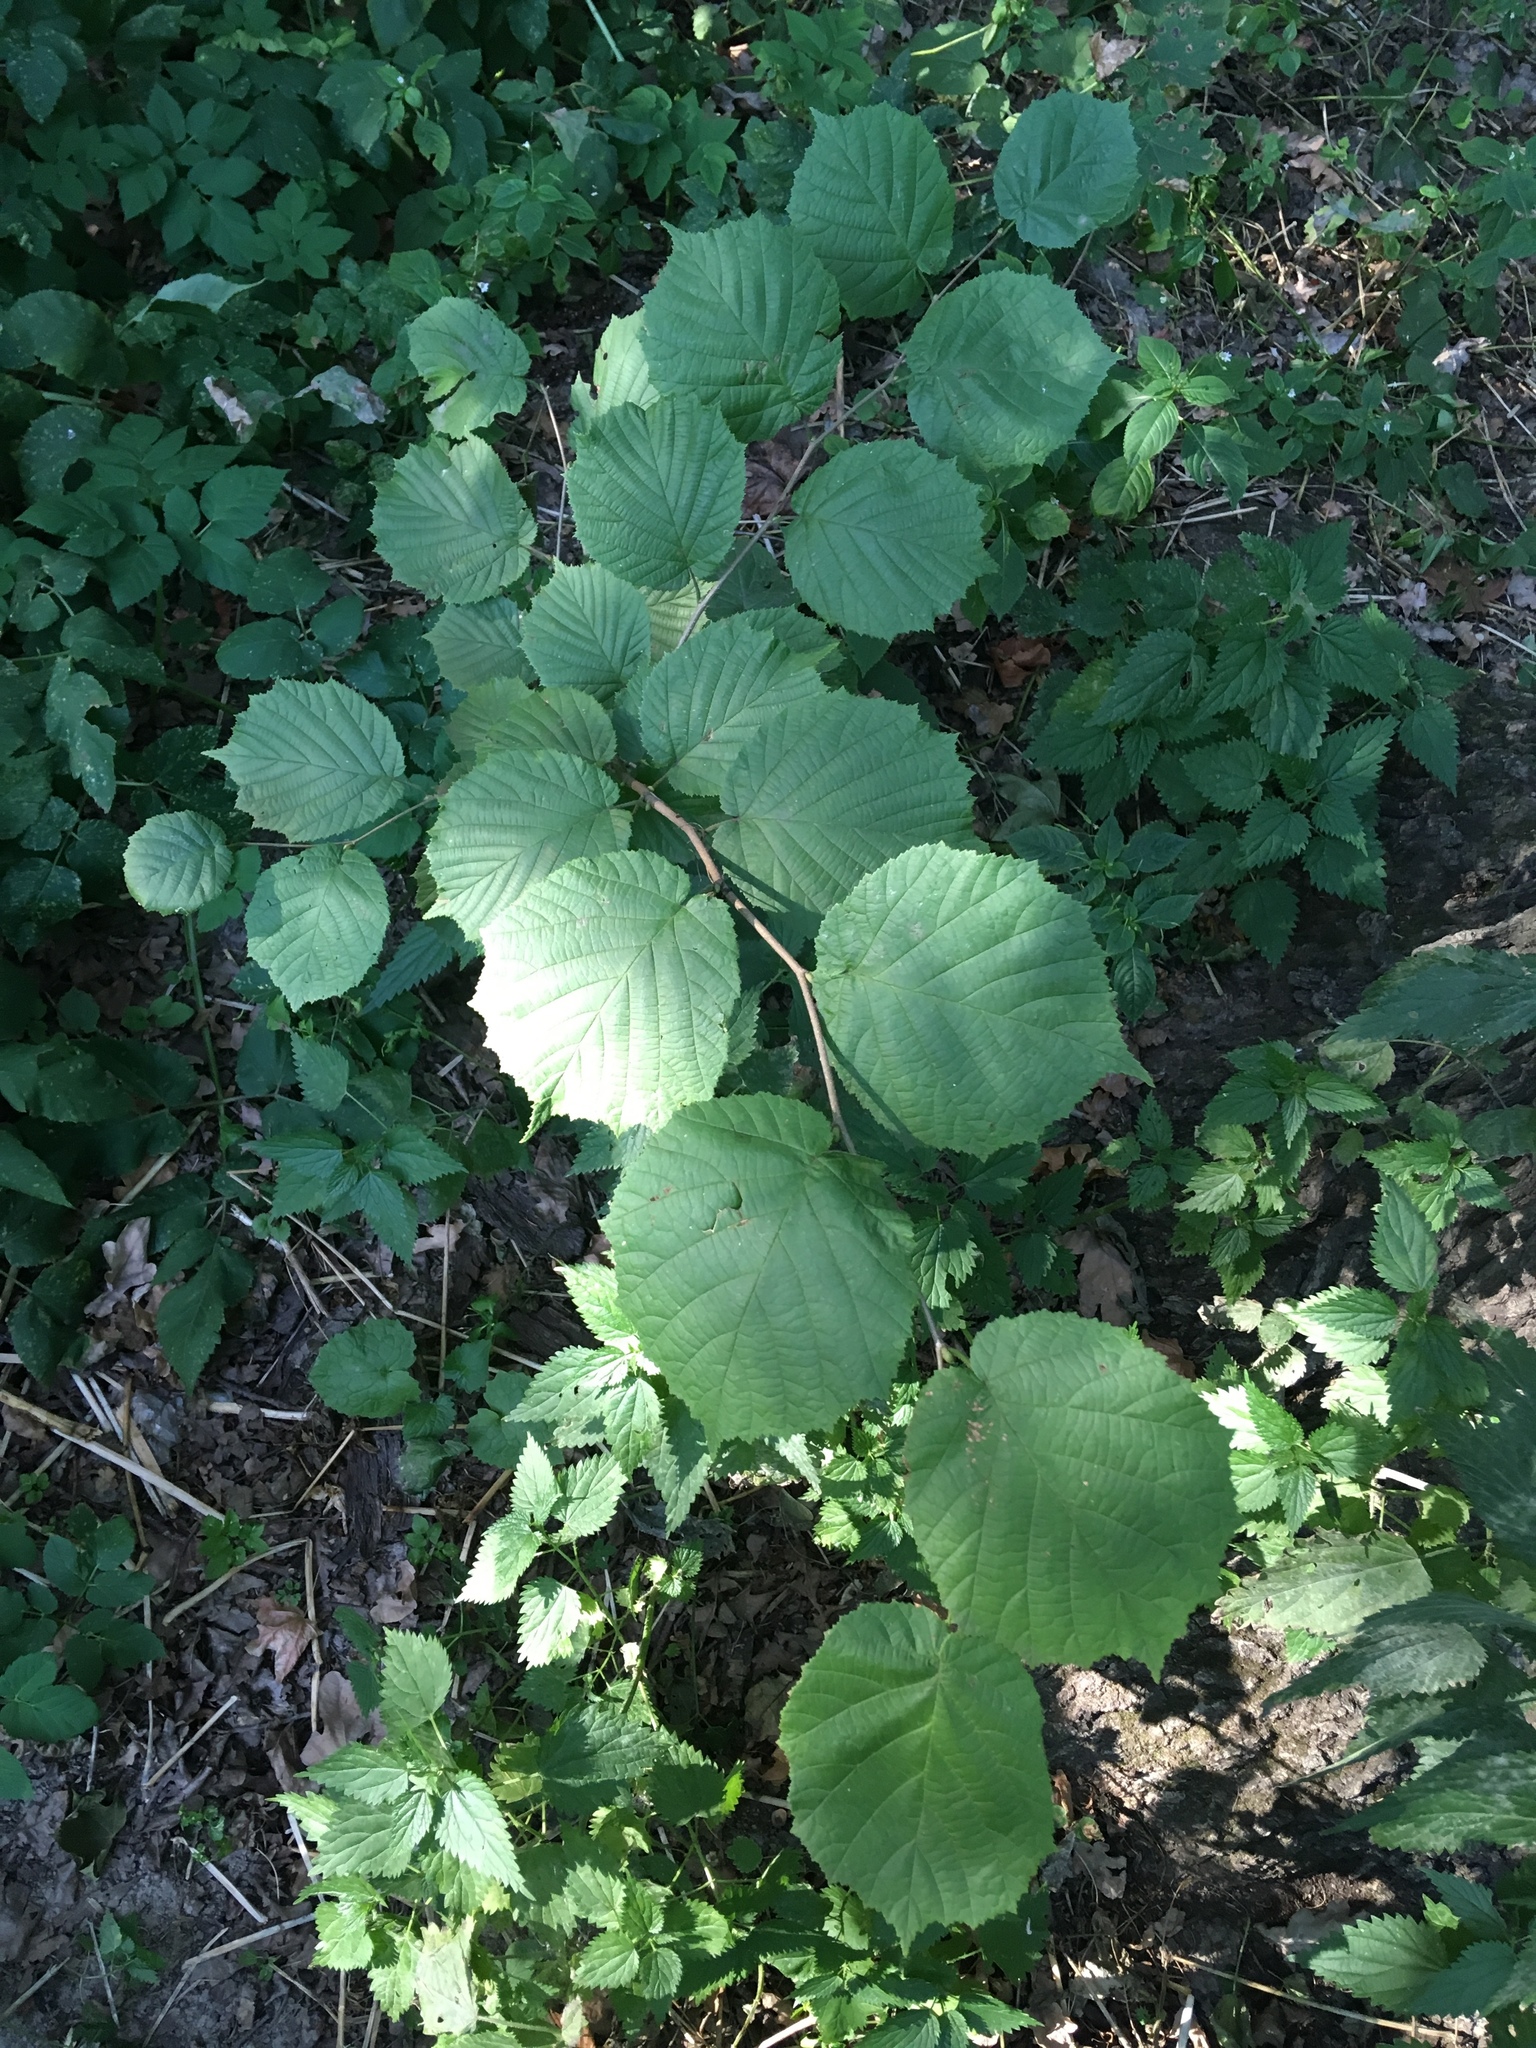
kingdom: Plantae
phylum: Tracheophyta
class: Magnoliopsida
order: Fagales
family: Betulaceae
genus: Corylus
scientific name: Corylus avellana
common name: European hazel
